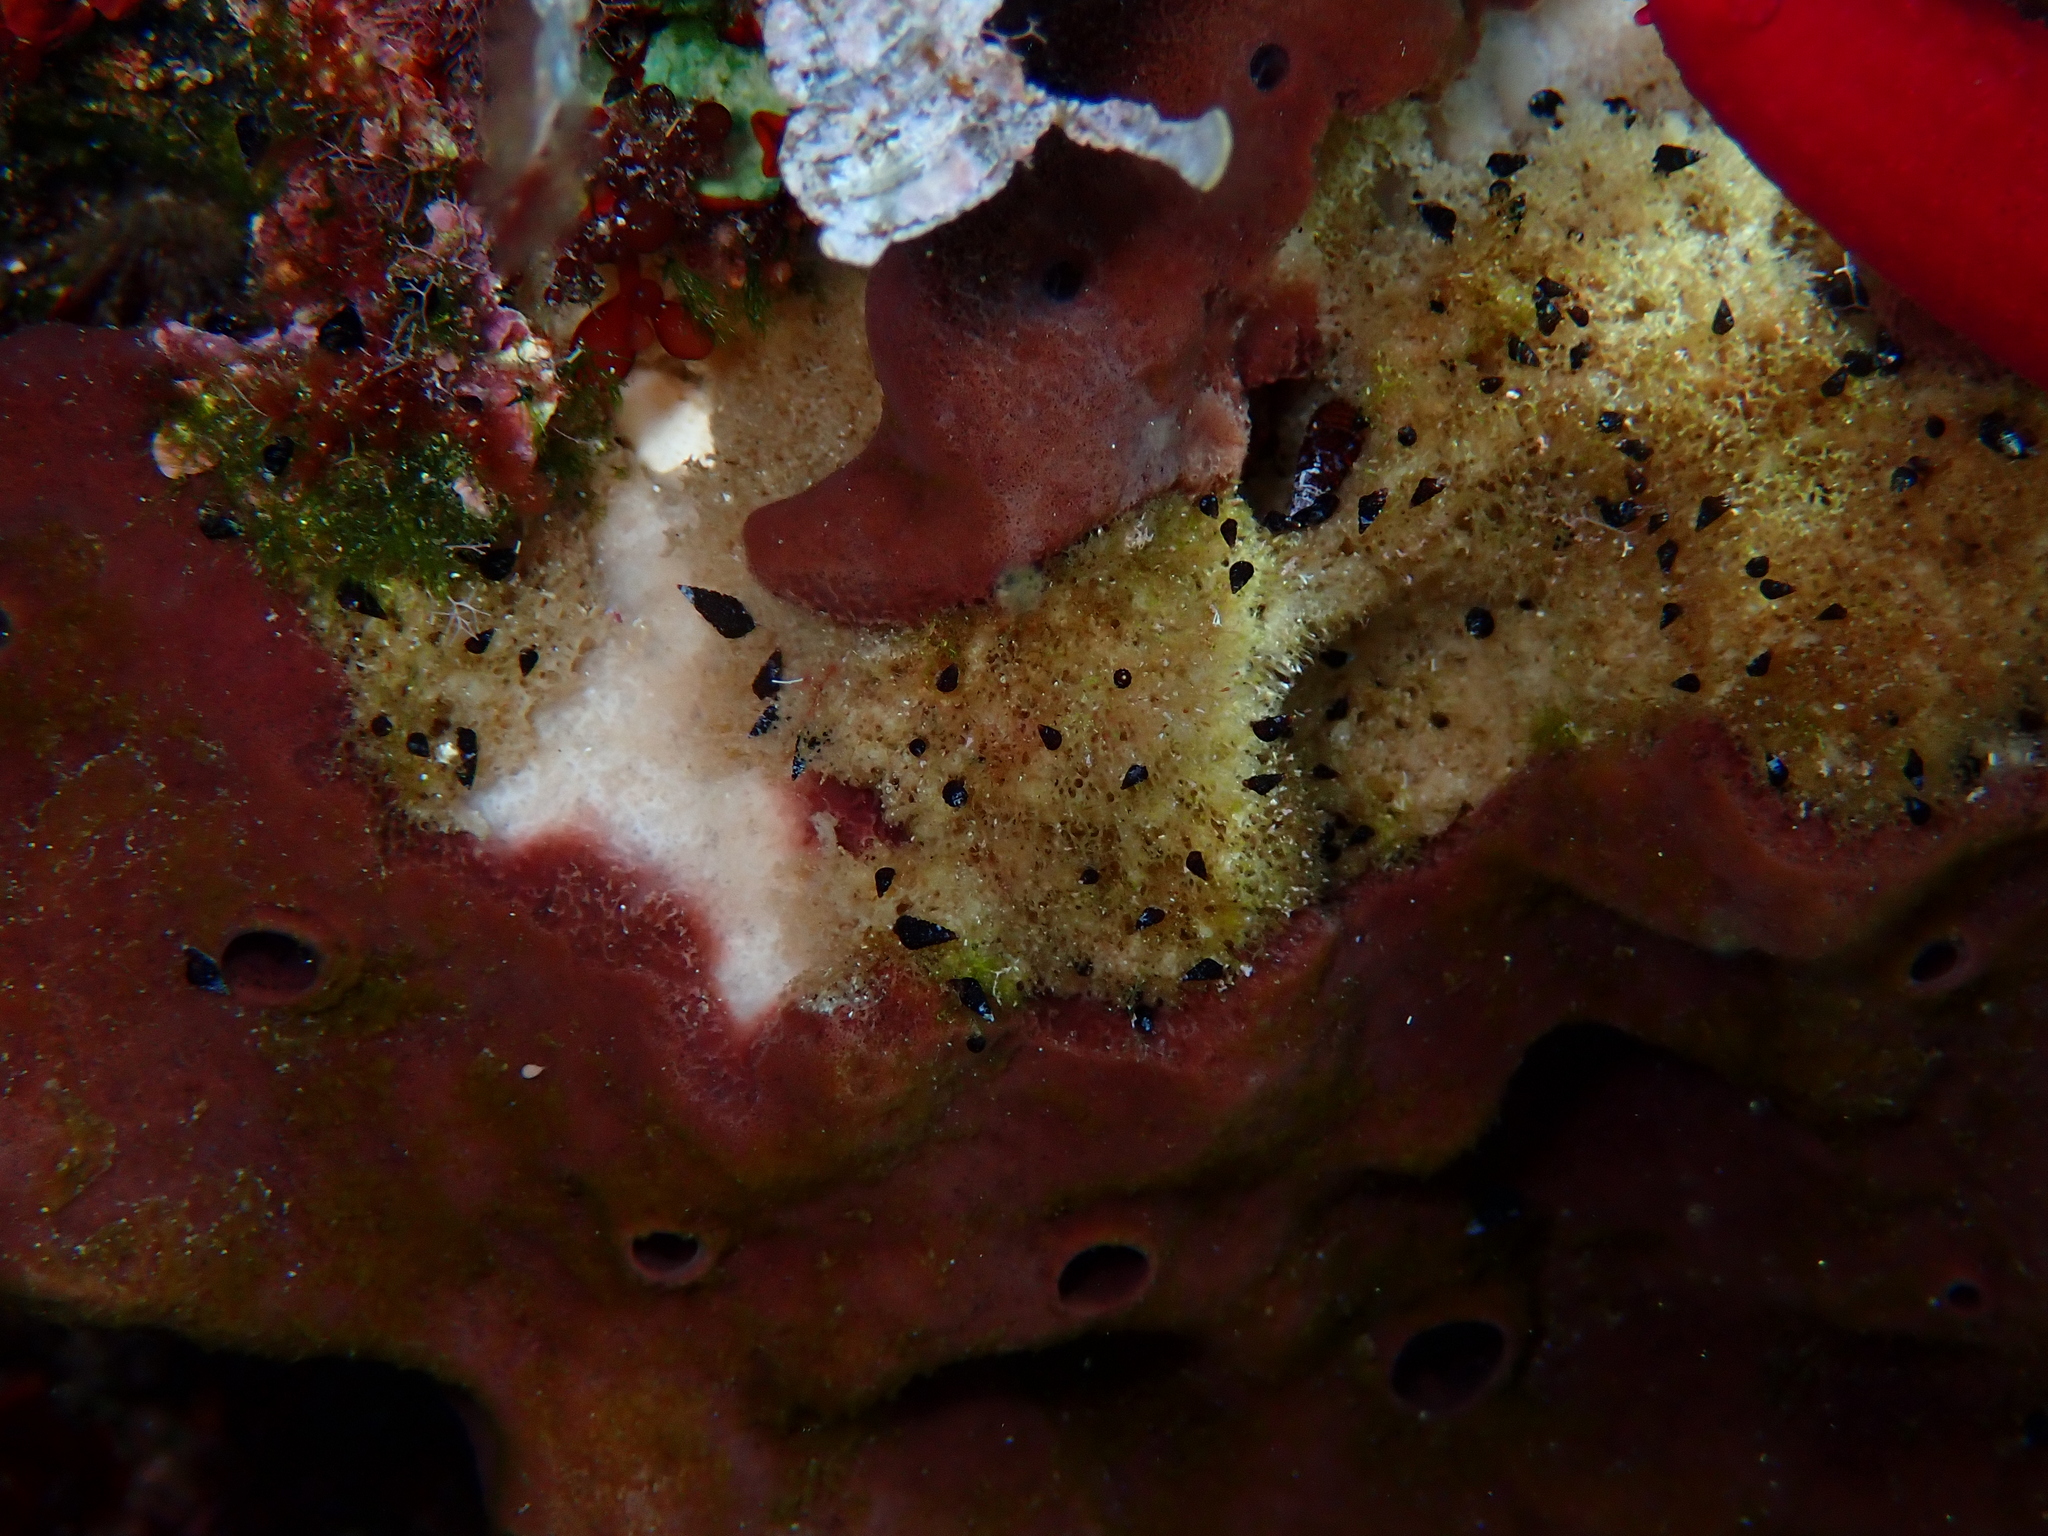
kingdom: Animalia
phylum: Porifera
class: Demospongiae
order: Haplosclerida
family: Petrosiidae
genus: Petrosia
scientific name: Petrosia ficiformis
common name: Stony sponge
